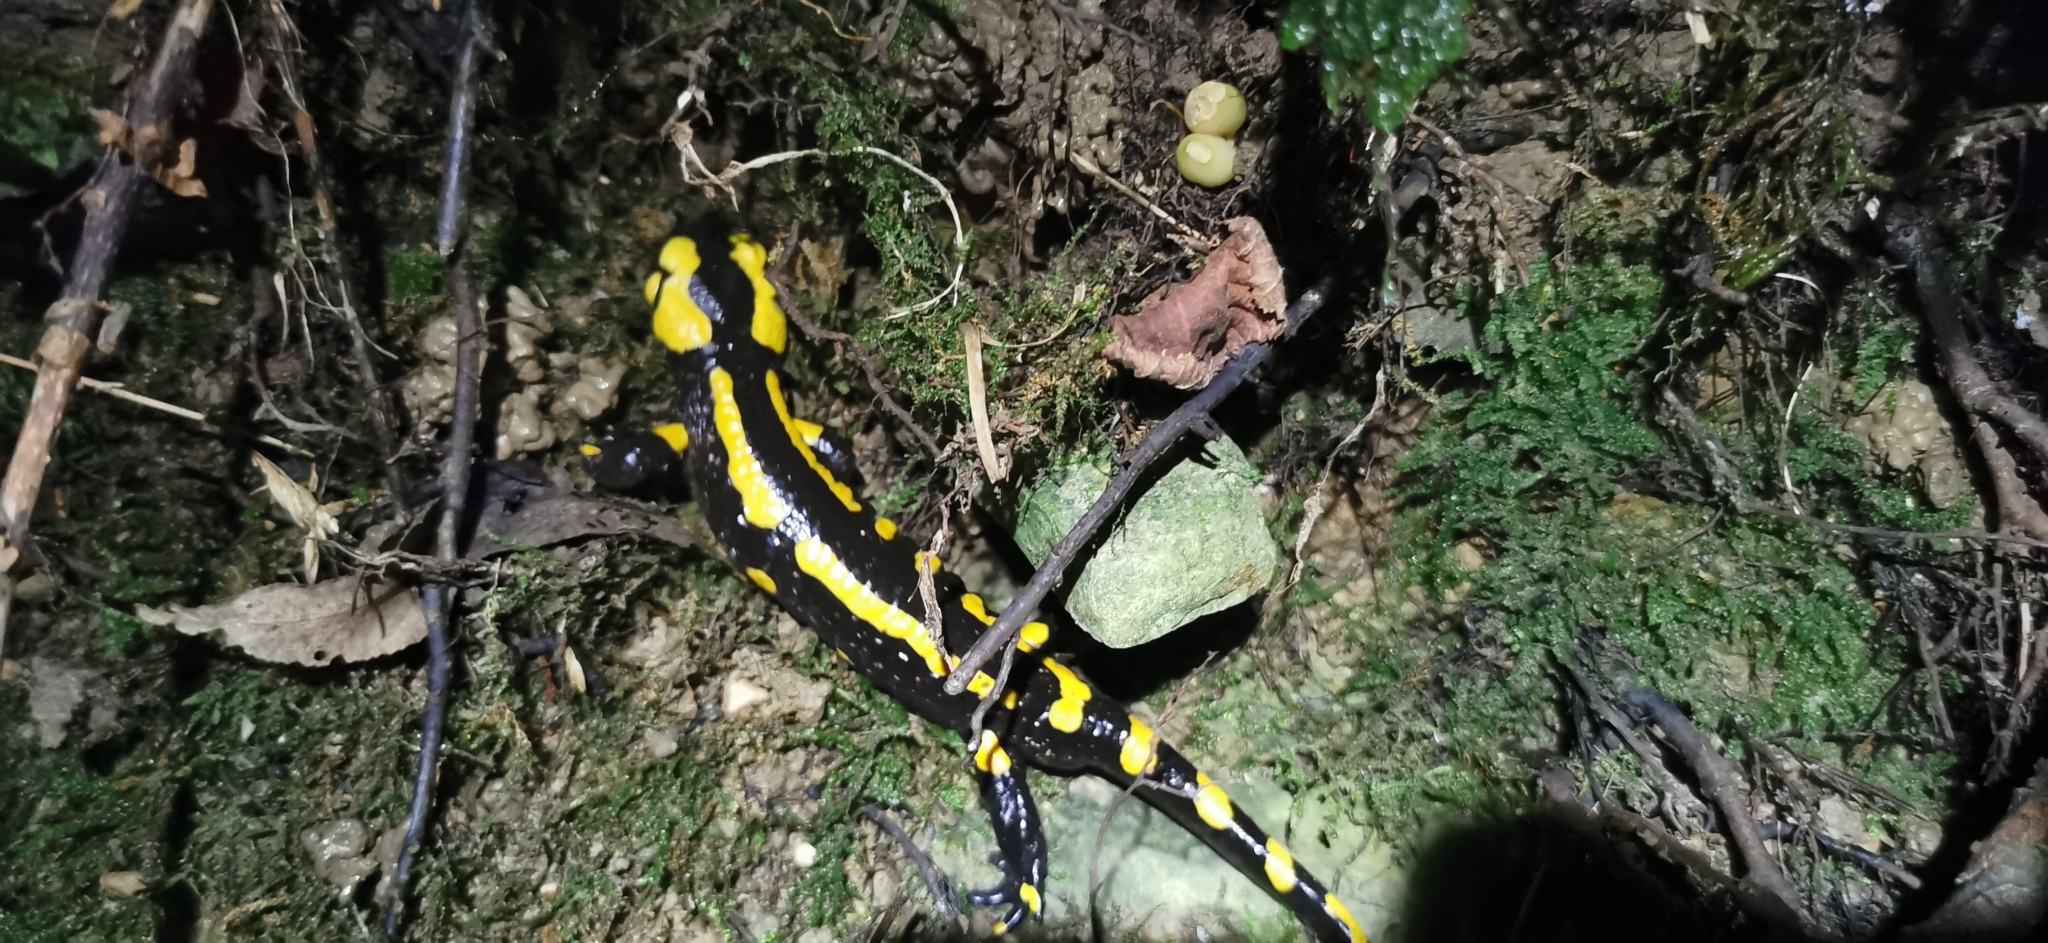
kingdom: Animalia
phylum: Chordata
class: Amphibia
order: Caudata
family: Salamandridae
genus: Salamandra
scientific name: Salamandra salamandra
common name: Fire salamander
